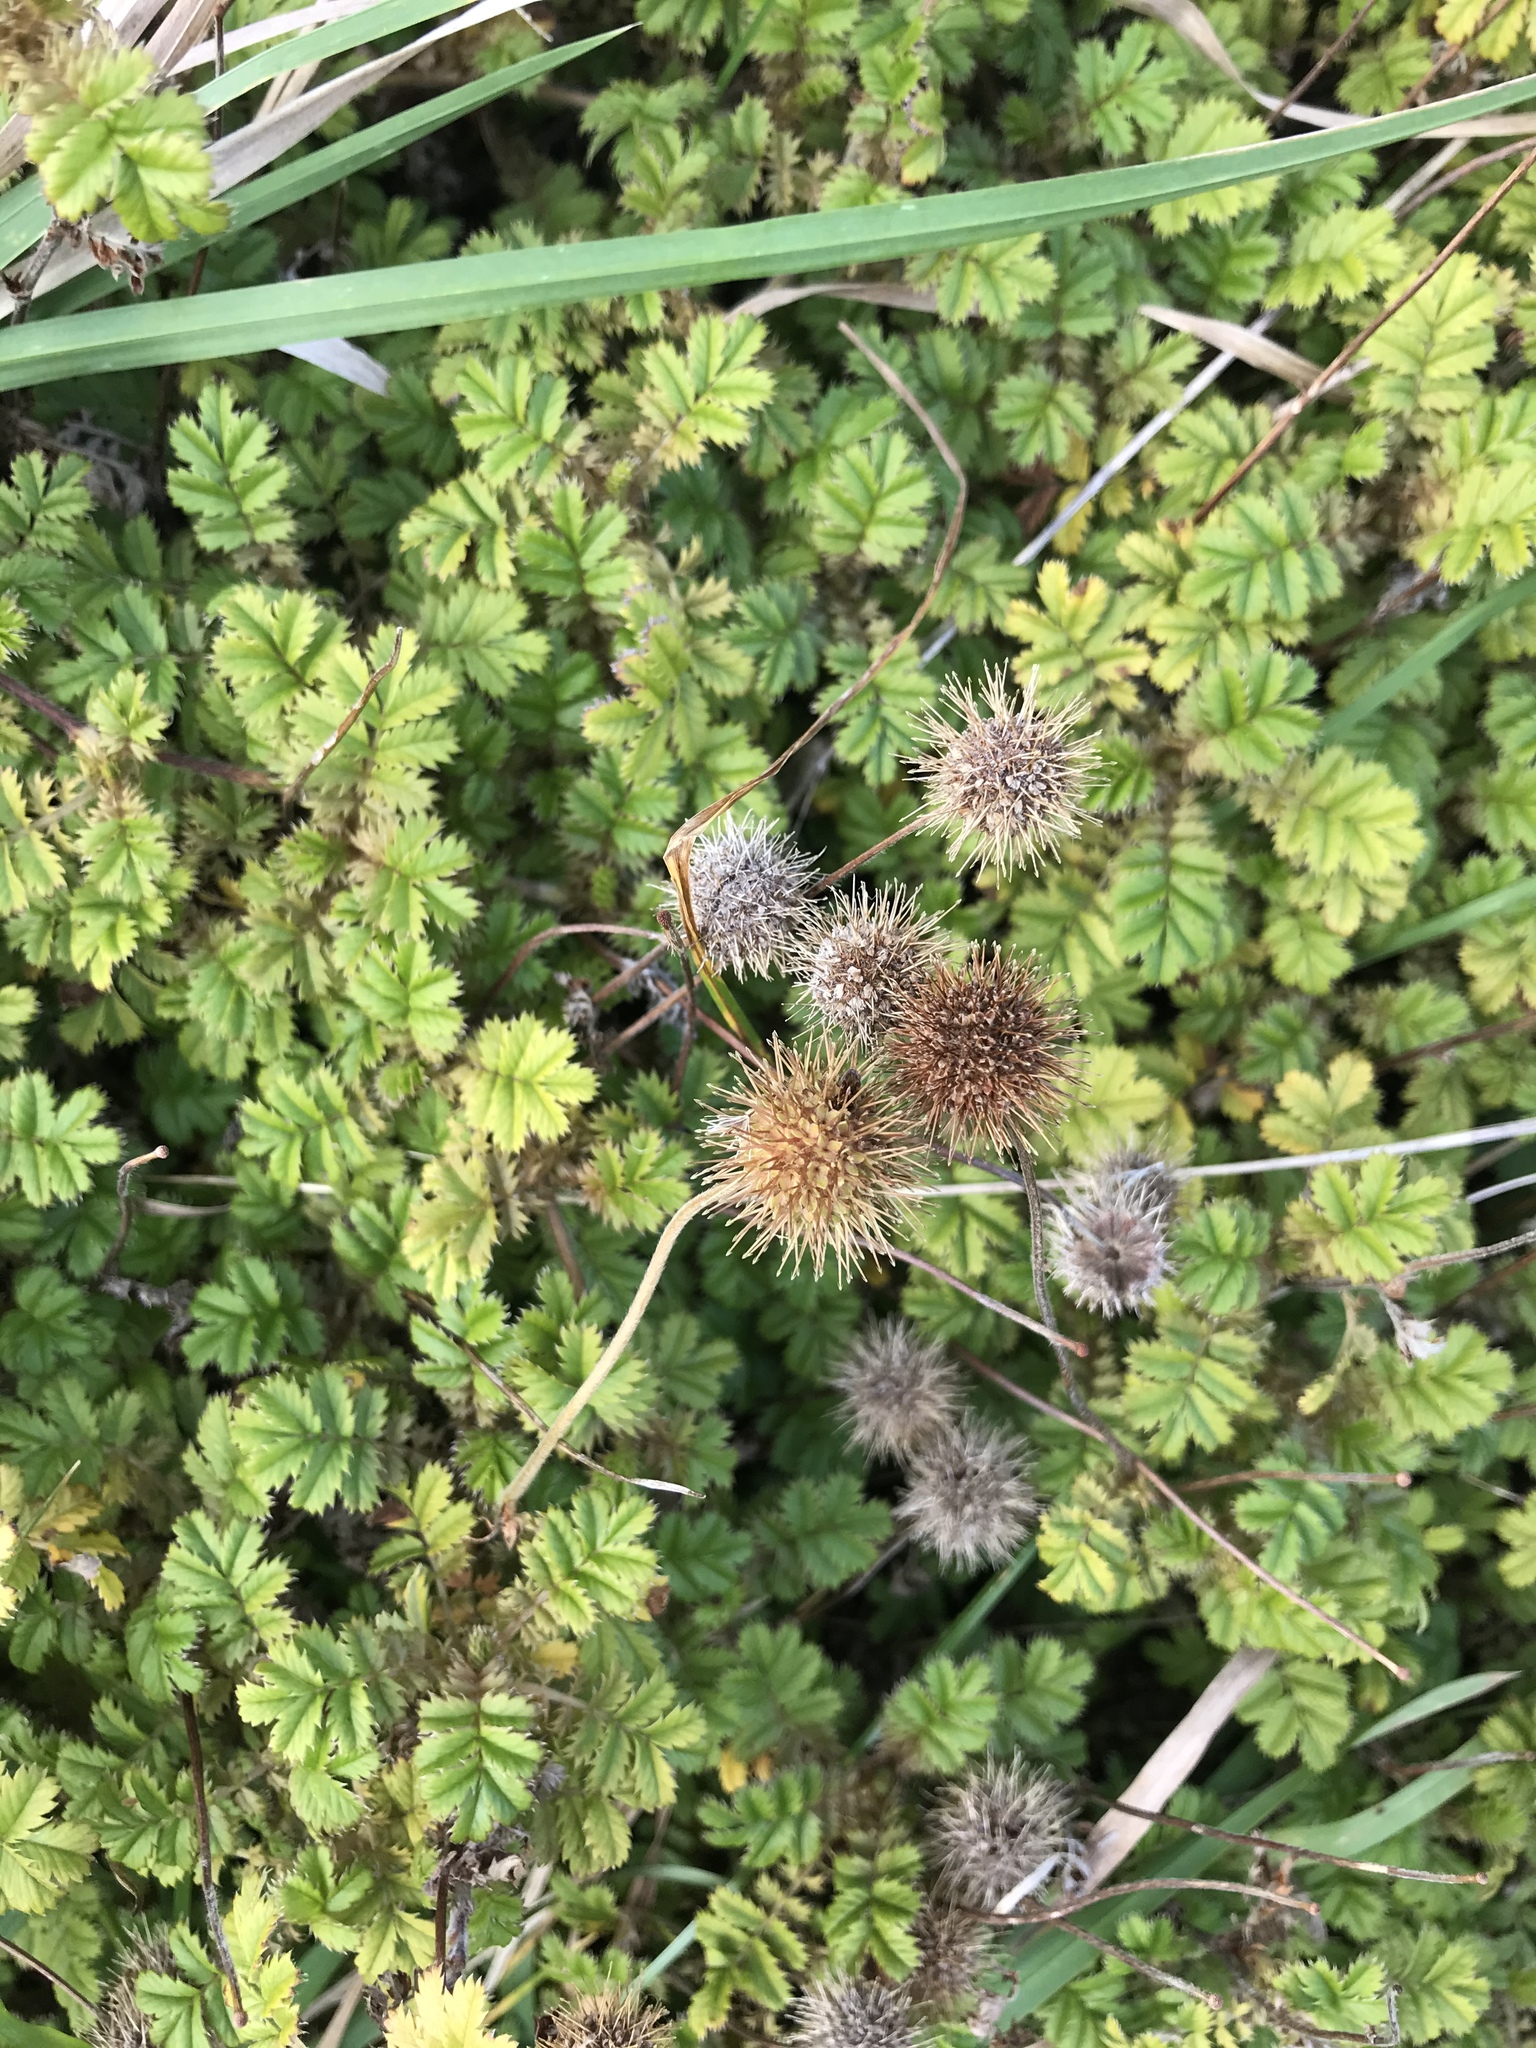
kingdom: Plantae
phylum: Tracheophyta
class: Magnoliopsida
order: Rosales
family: Rosaceae
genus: Acaena
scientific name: Acaena anserinifolia
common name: Bronze pirri-pirri-bur
